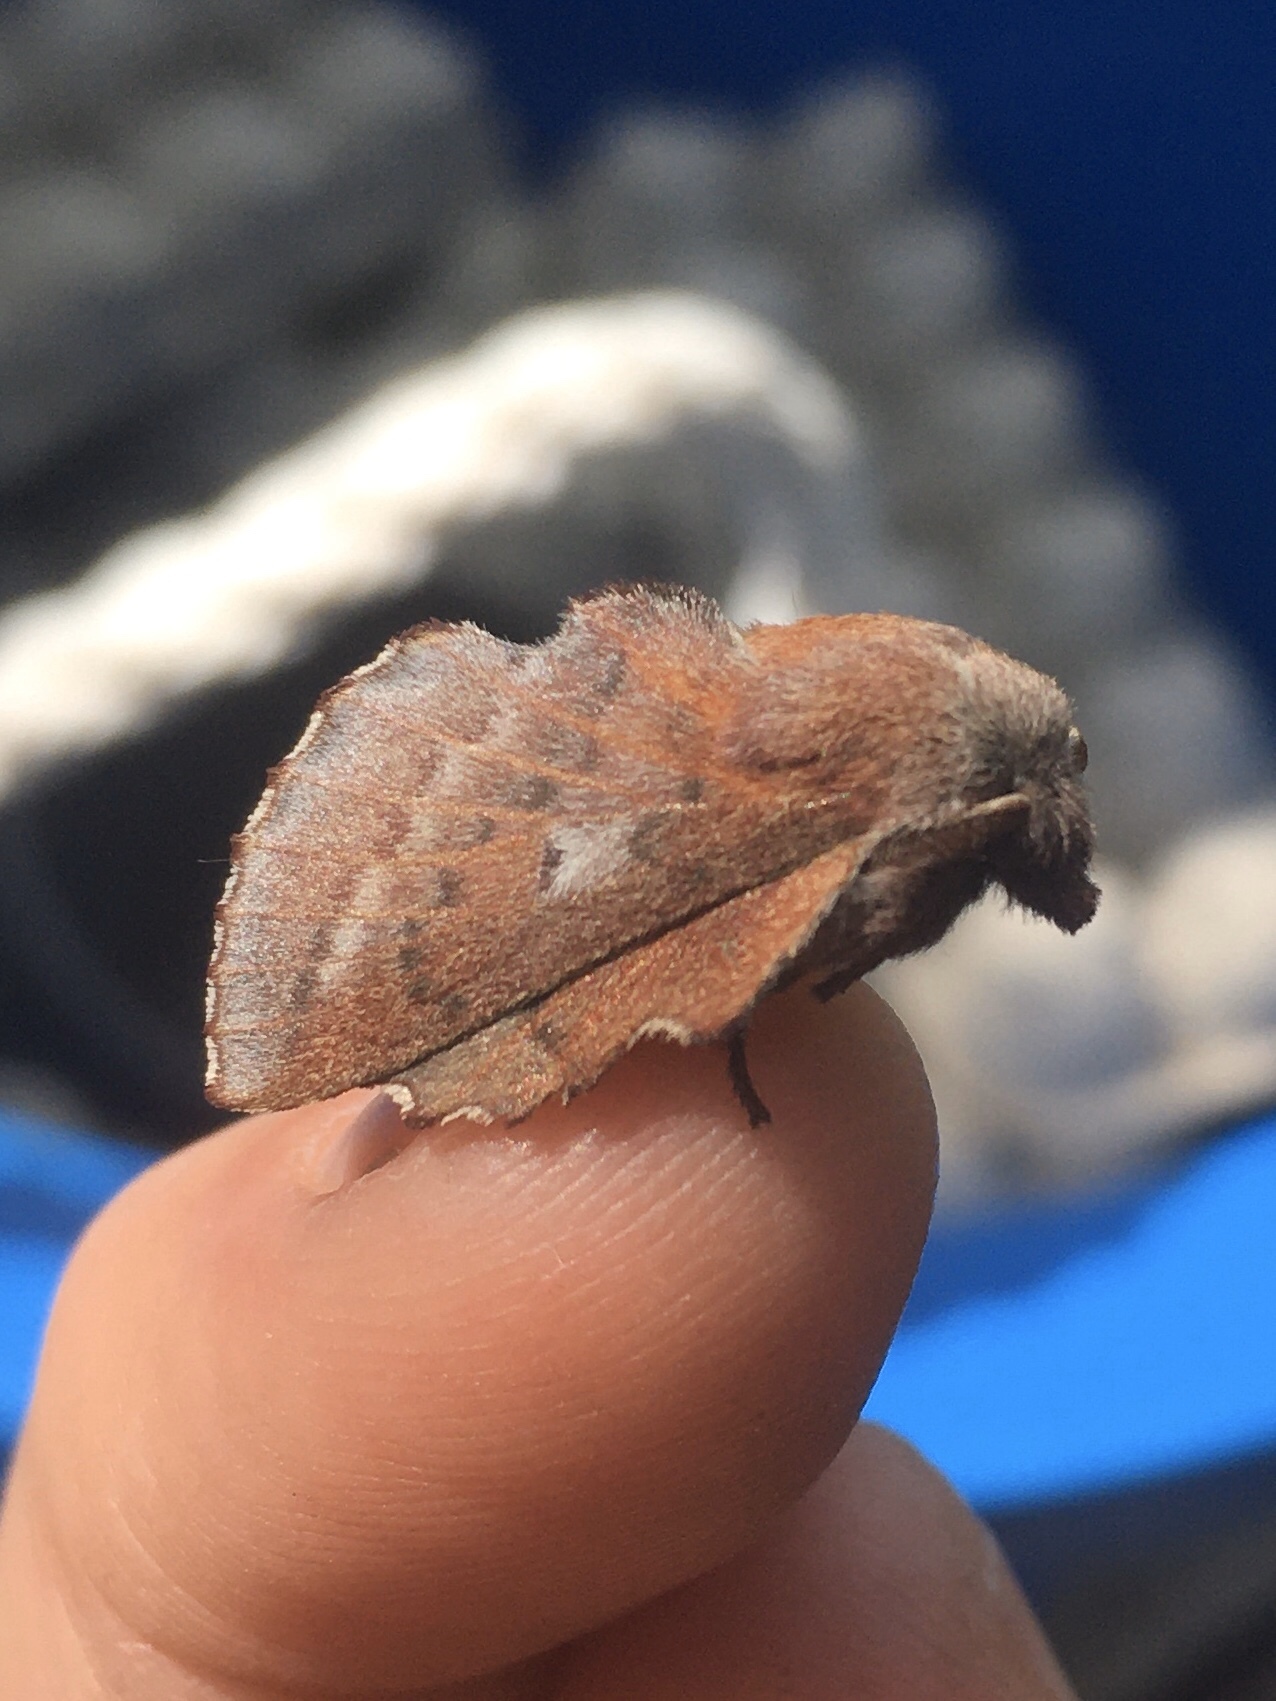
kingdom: Animalia
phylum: Arthropoda
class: Insecta
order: Lepidoptera
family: Lasiocampidae
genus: Phyllodesma
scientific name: Phyllodesma americana
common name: American lappet moth
